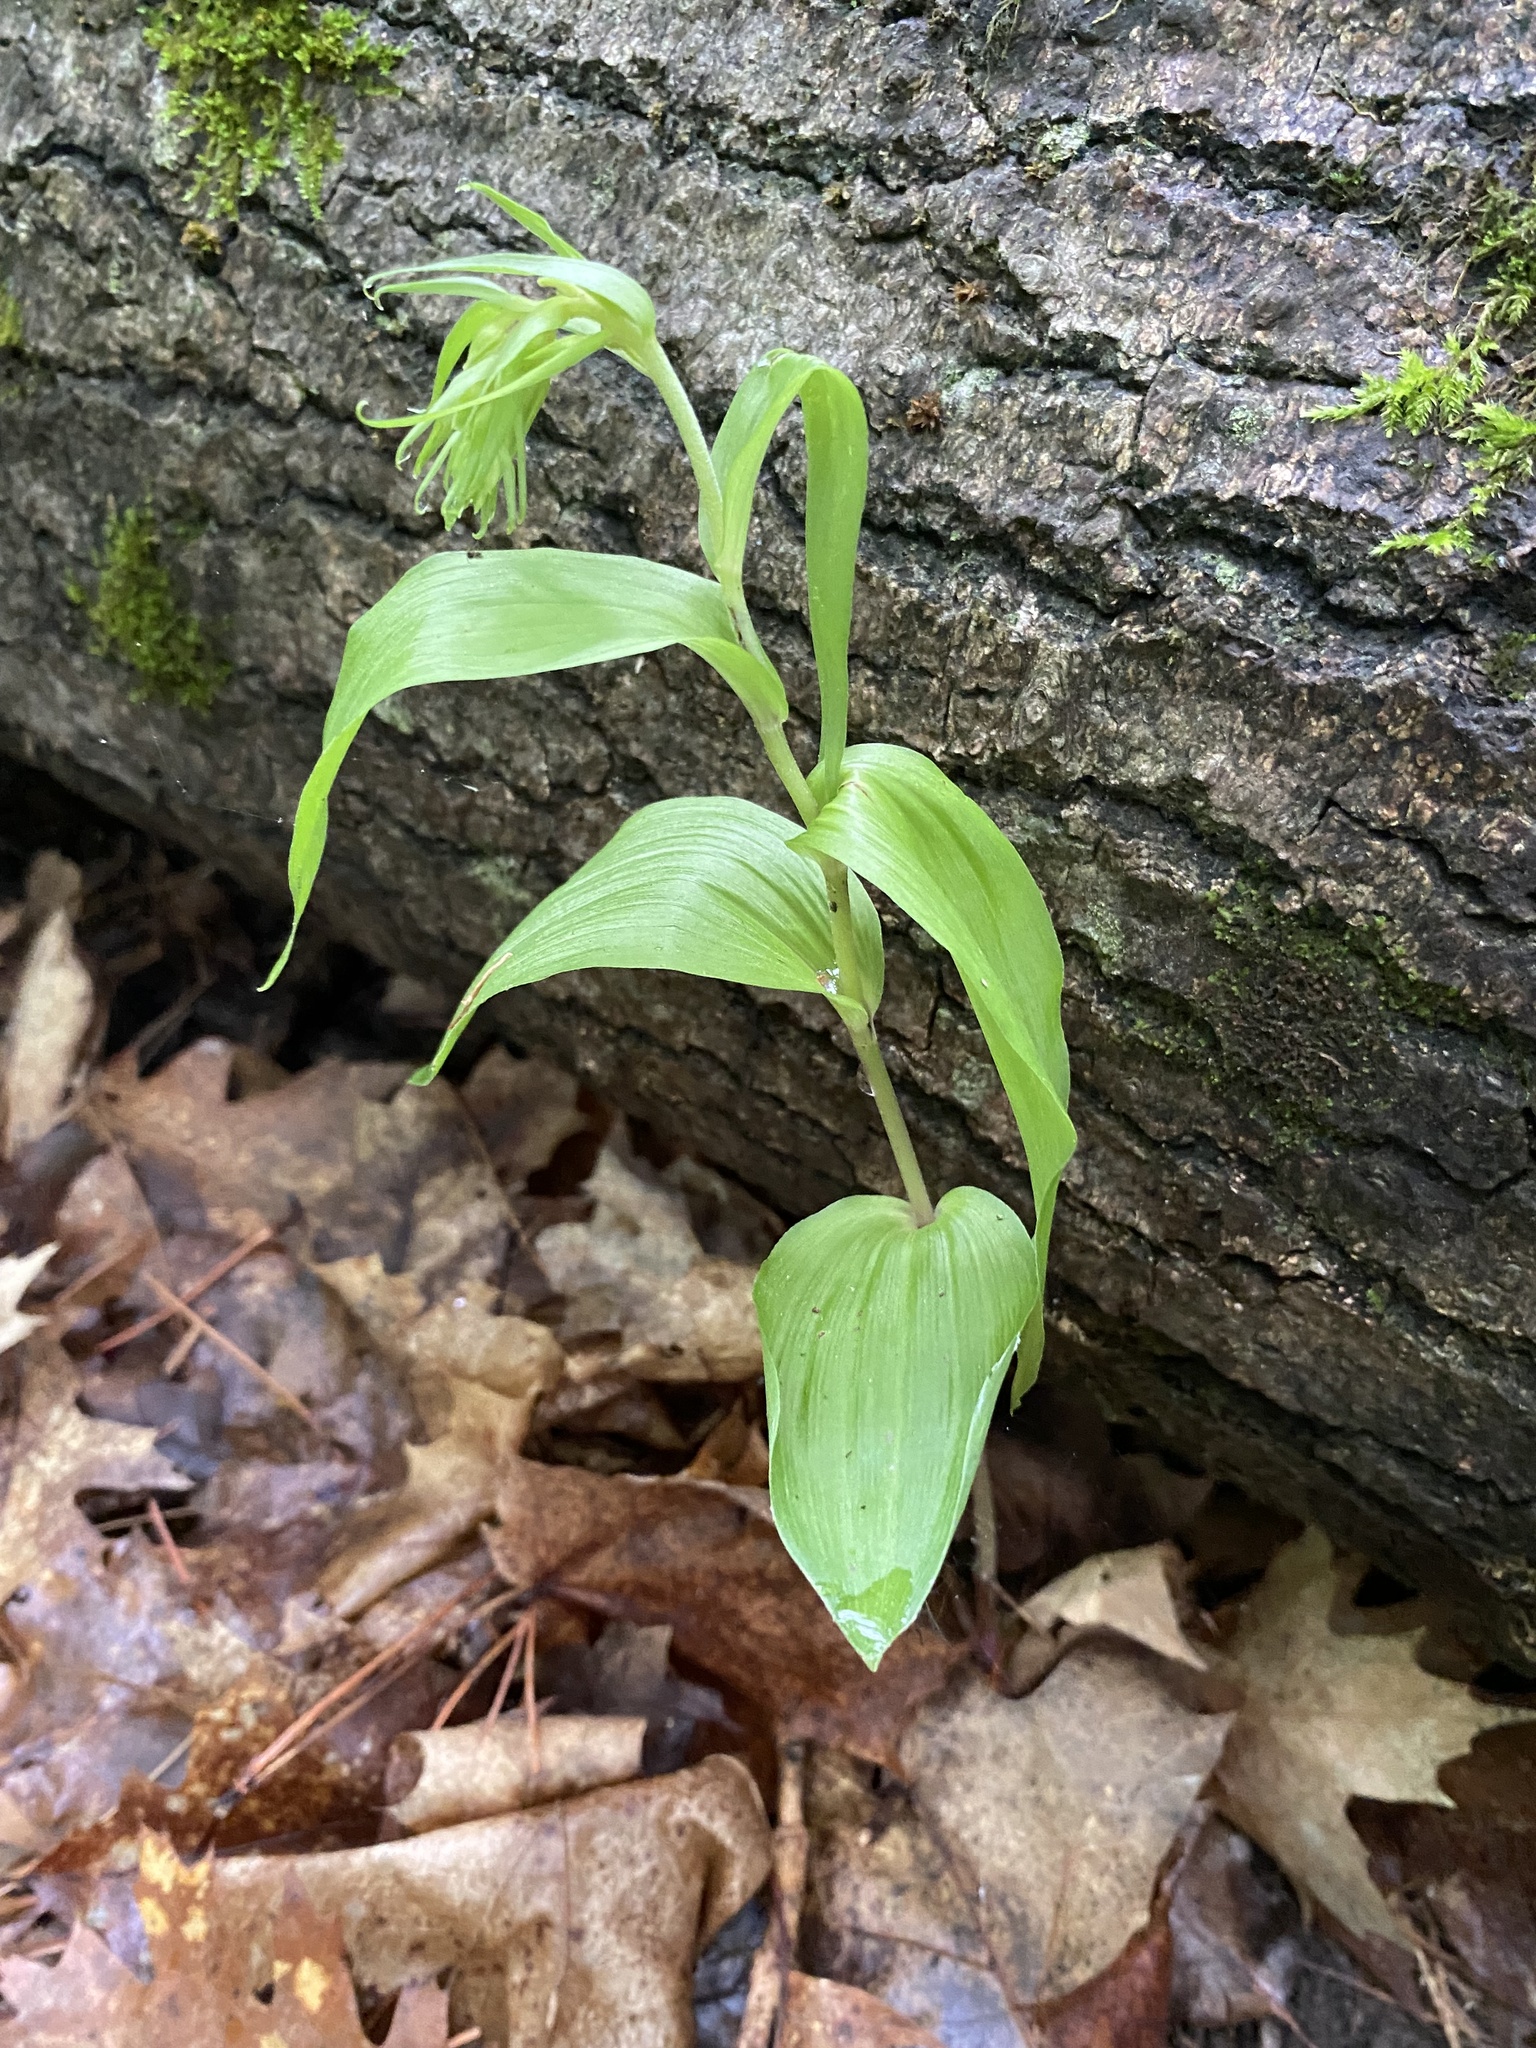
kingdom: Plantae
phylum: Tracheophyta
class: Liliopsida
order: Asparagales
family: Orchidaceae
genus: Epipactis
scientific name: Epipactis helleborine
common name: Broad-leaved helleborine
